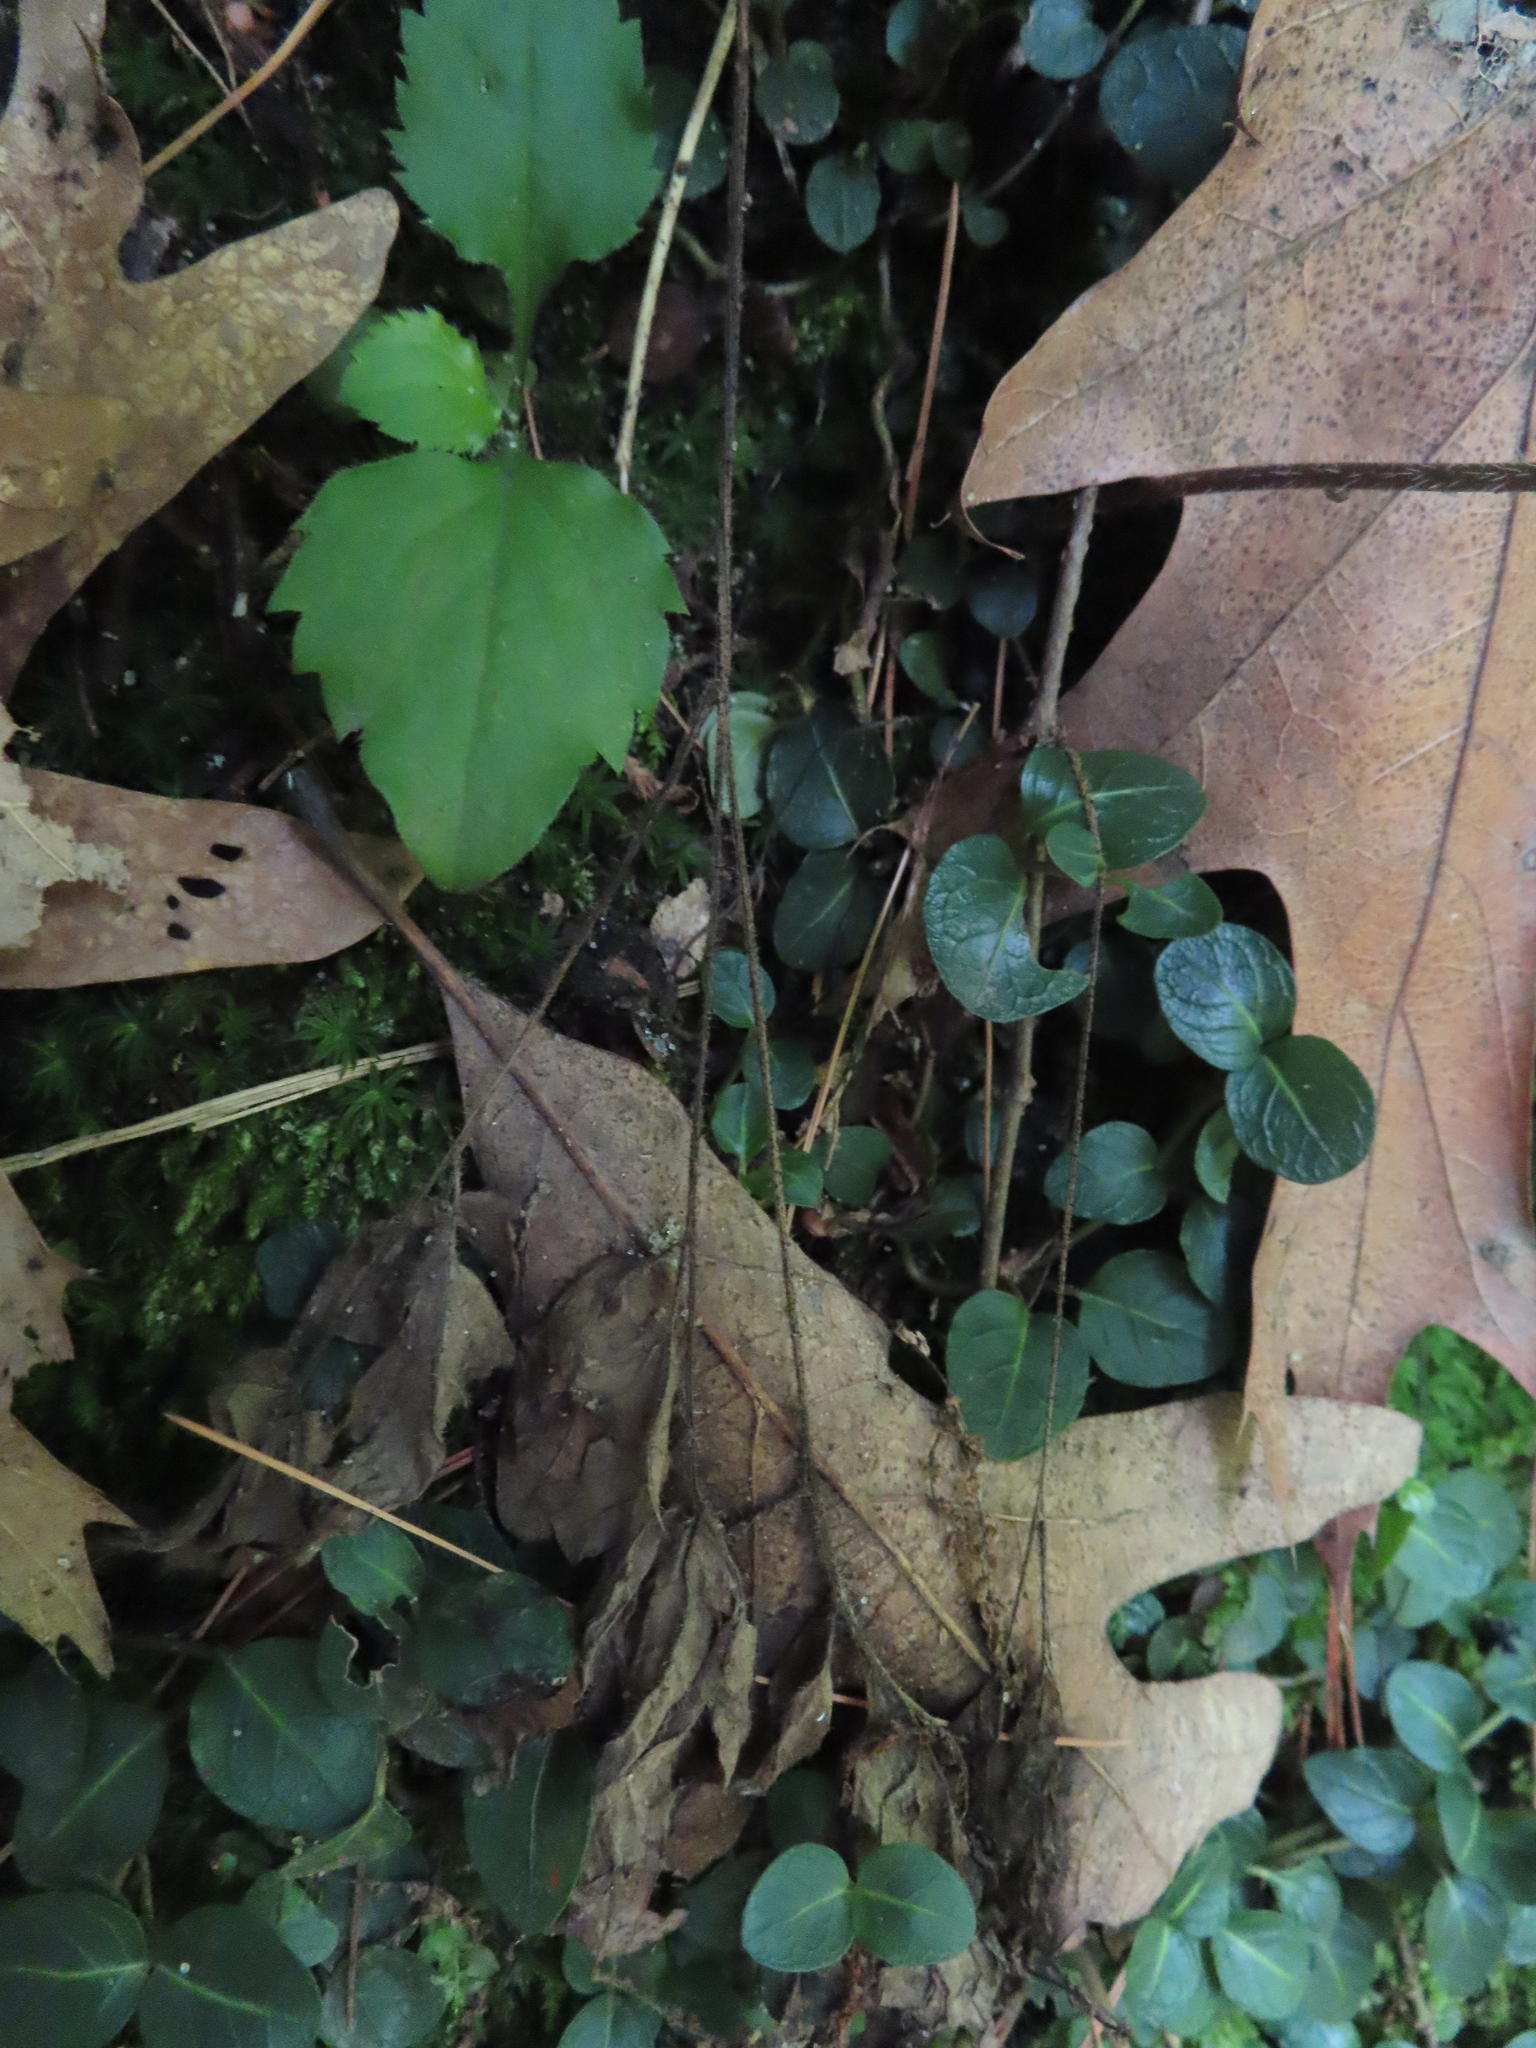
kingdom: Plantae
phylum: Tracheophyta
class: Magnoliopsida
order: Gentianales
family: Rubiaceae
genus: Mitchella
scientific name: Mitchella repens
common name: Partridge-berry
